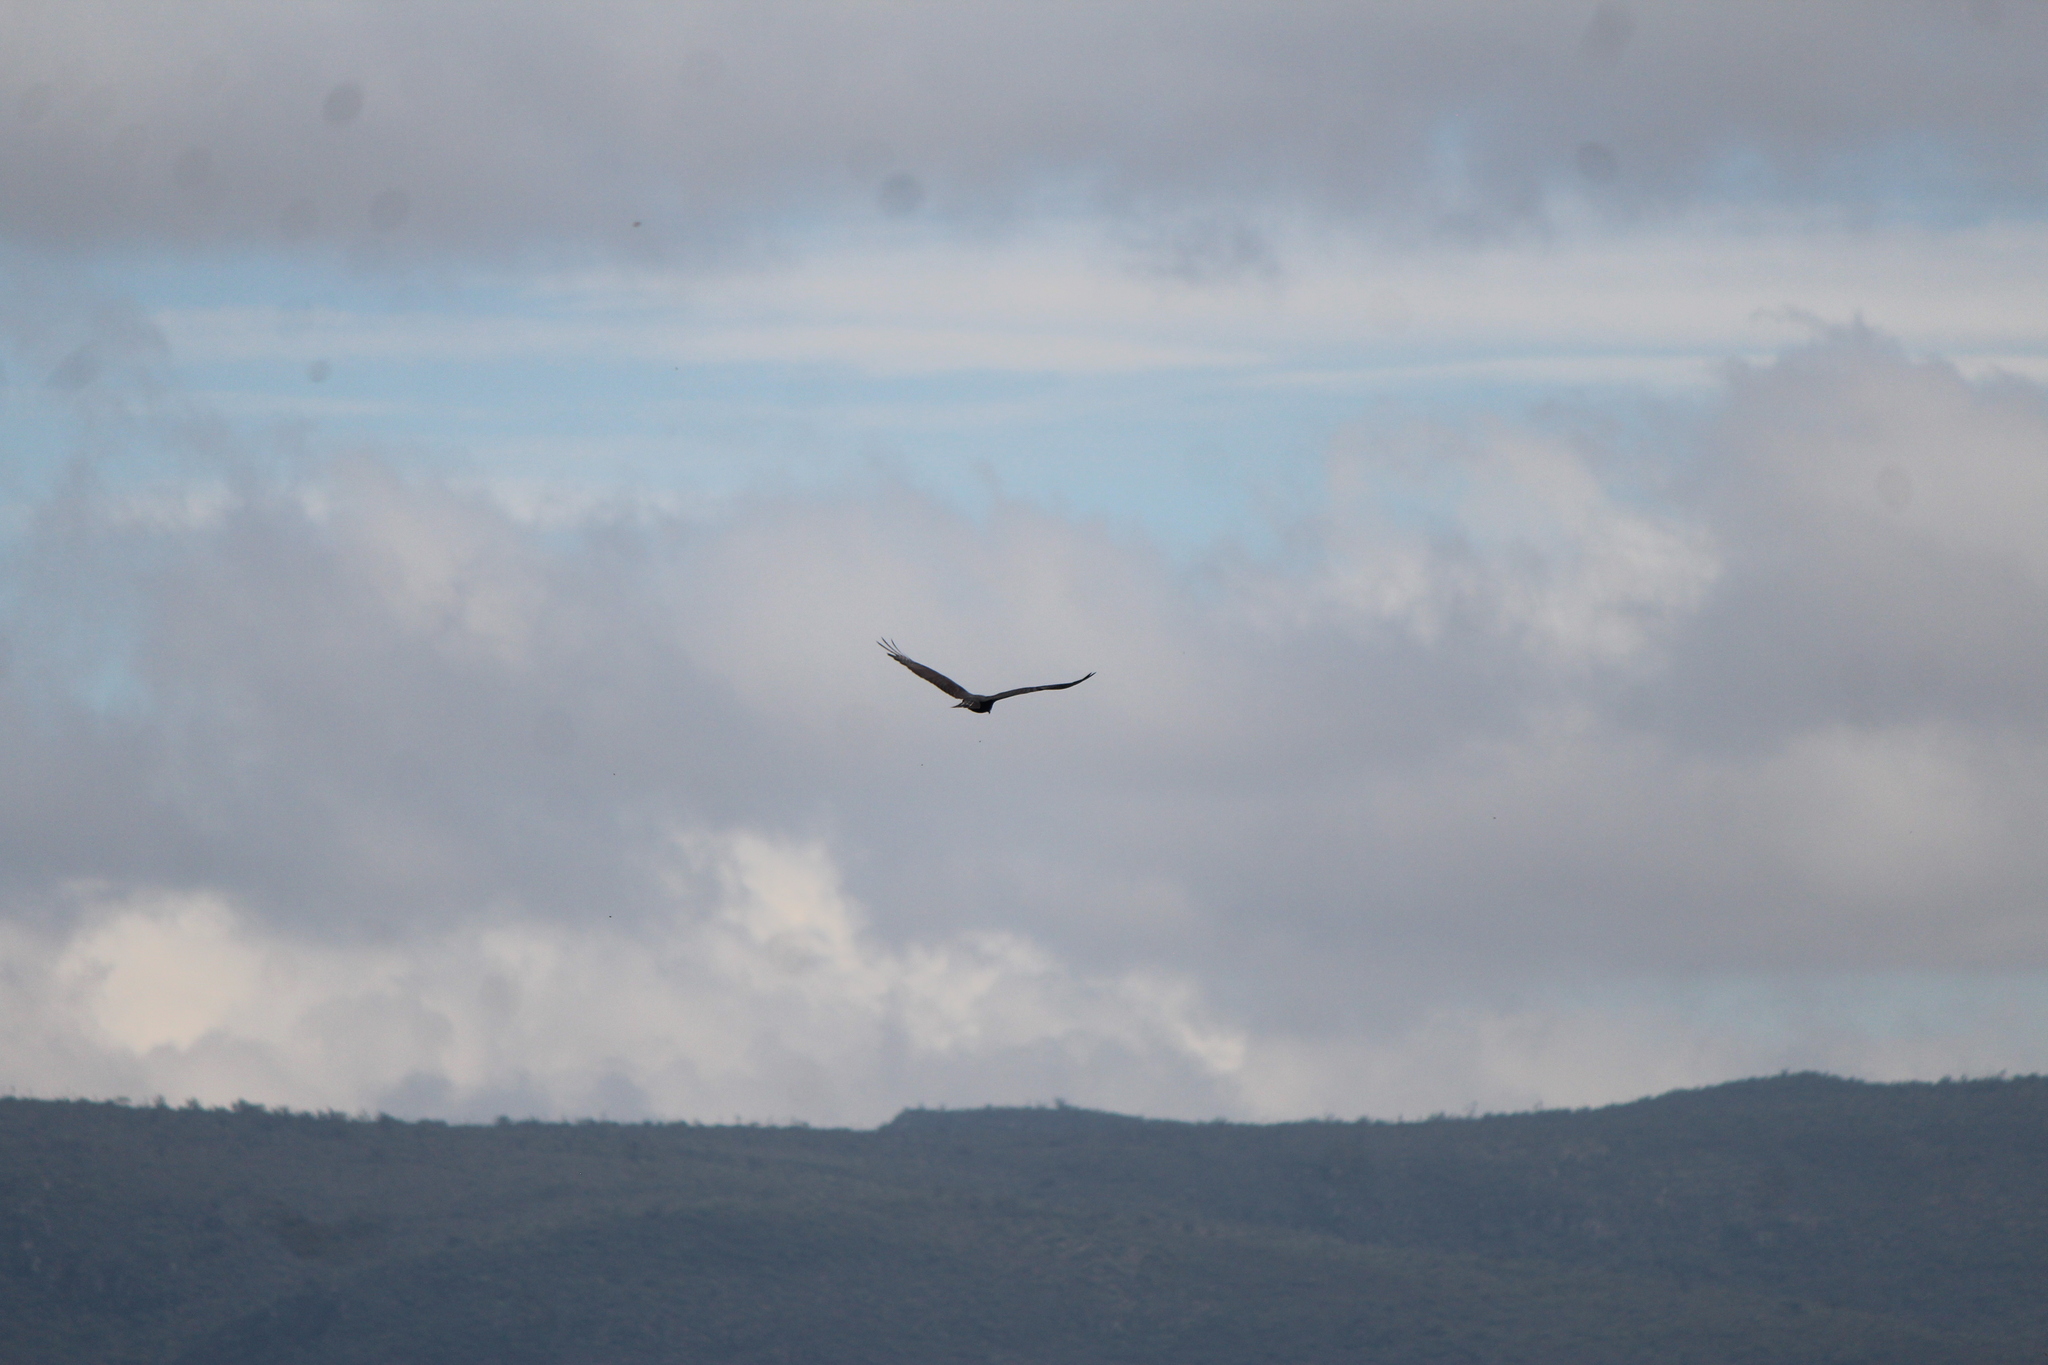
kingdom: Animalia
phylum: Chordata
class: Aves
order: Accipitriformes
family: Accipitridae
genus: Buteo
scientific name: Buteo albonotatus
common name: Zone-tailed hawk
